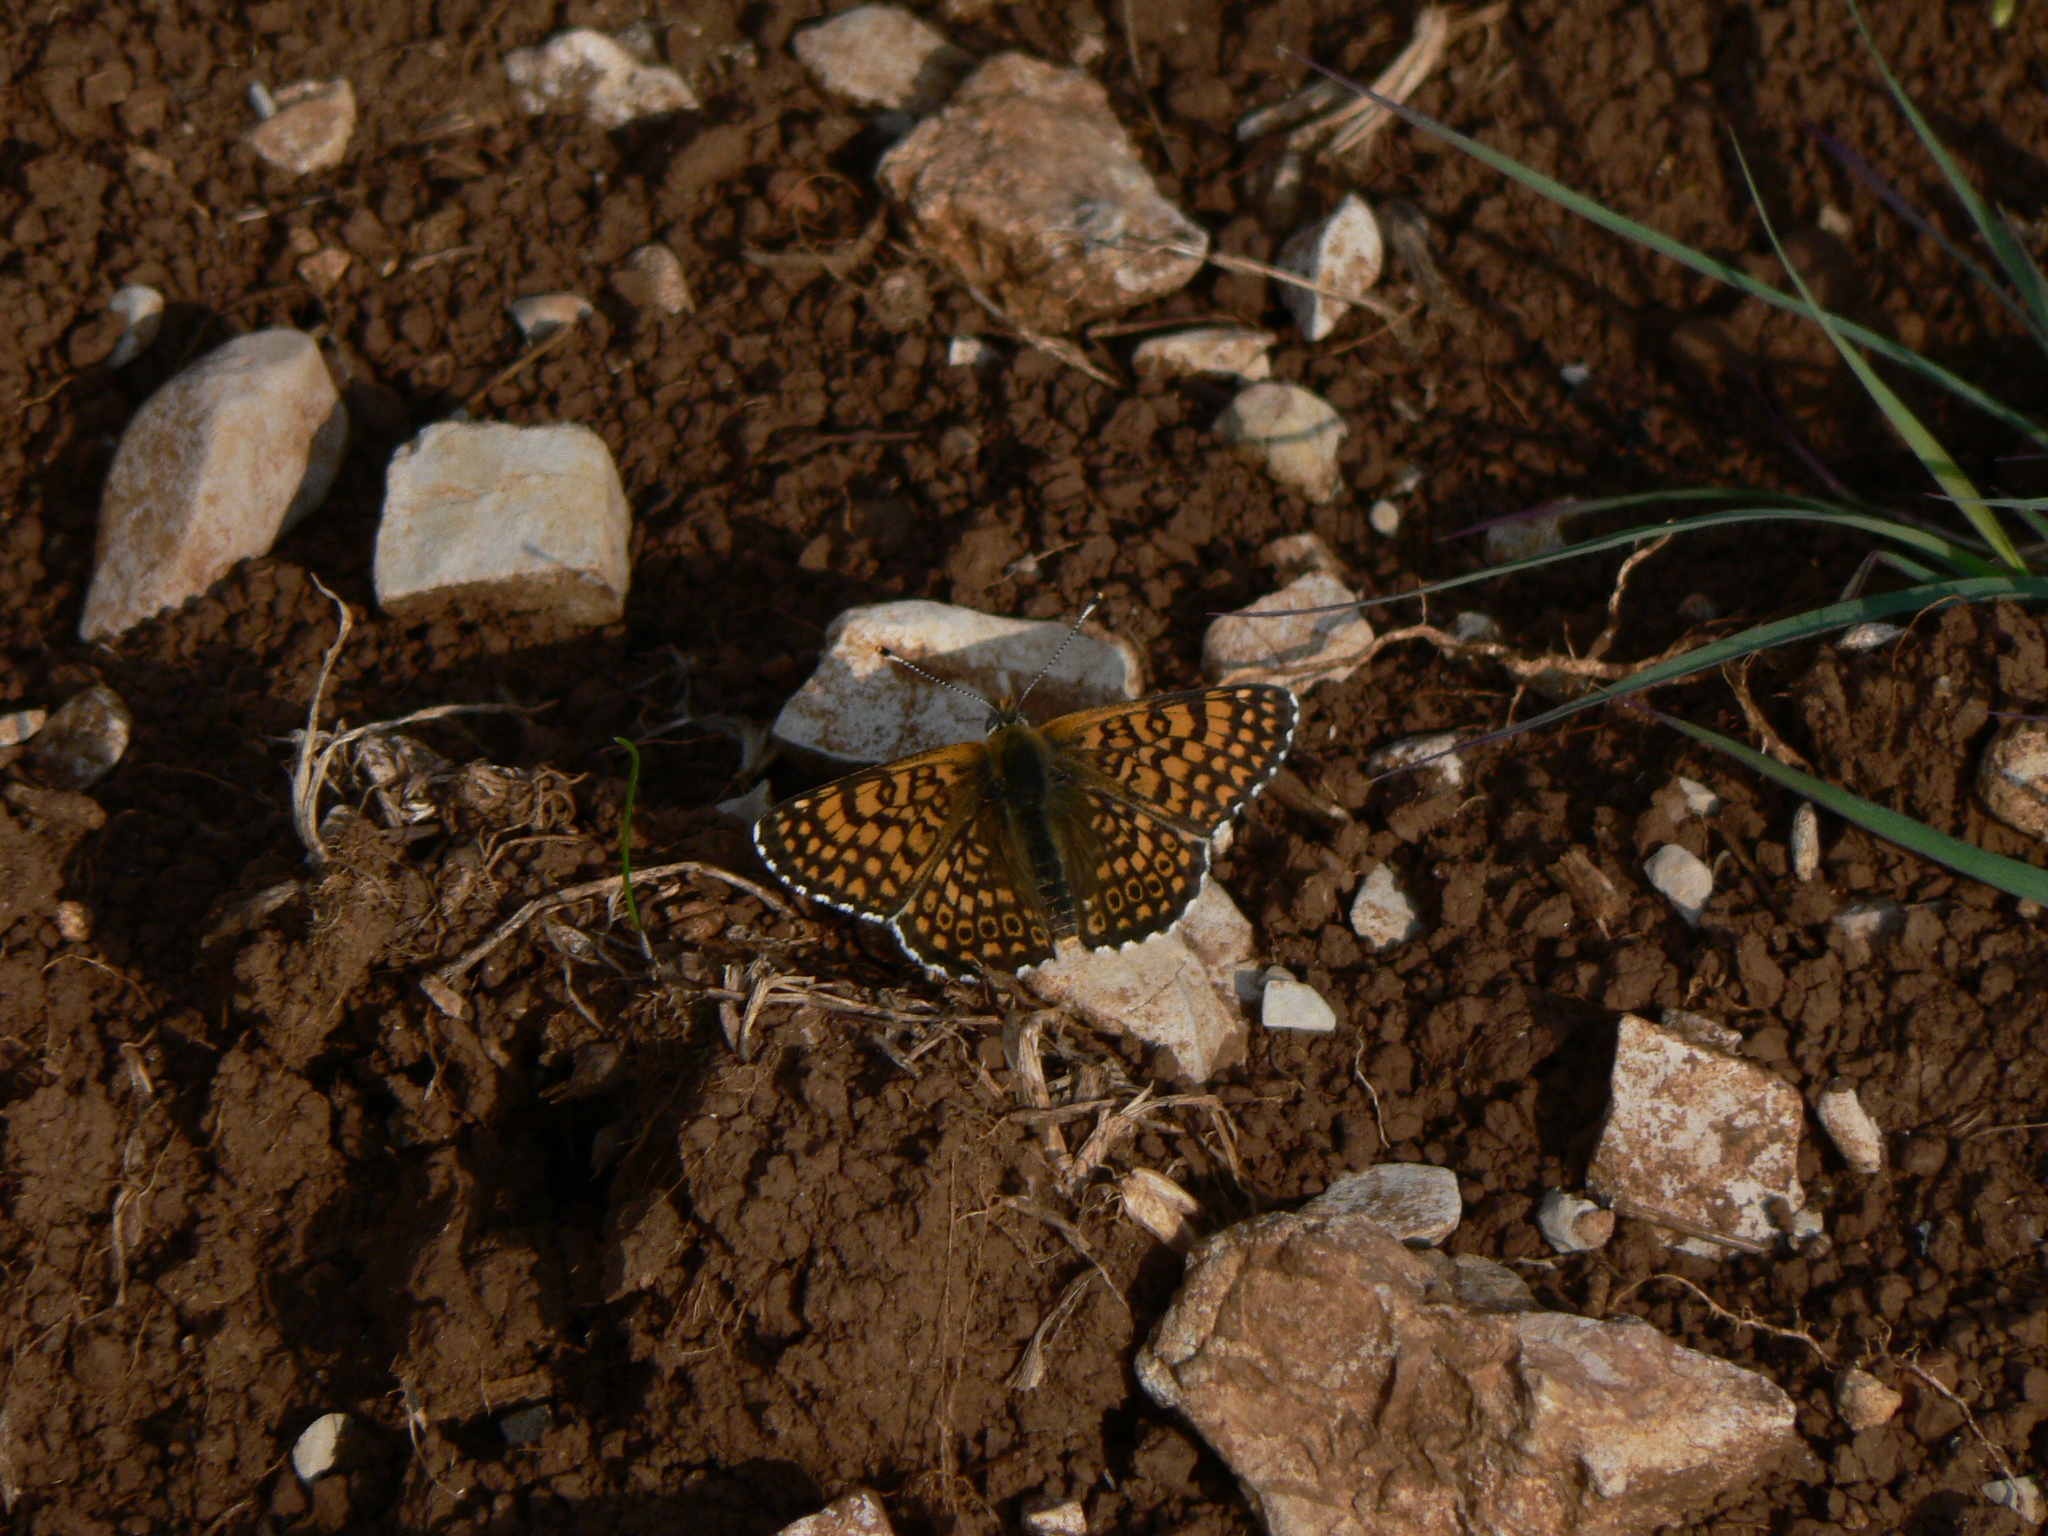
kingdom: Animalia
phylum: Arthropoda
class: Insecta
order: Lepidoptera
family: Nymphalidae
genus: Melitaea
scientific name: Melitaea cinxia
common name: Glanville fritillary
